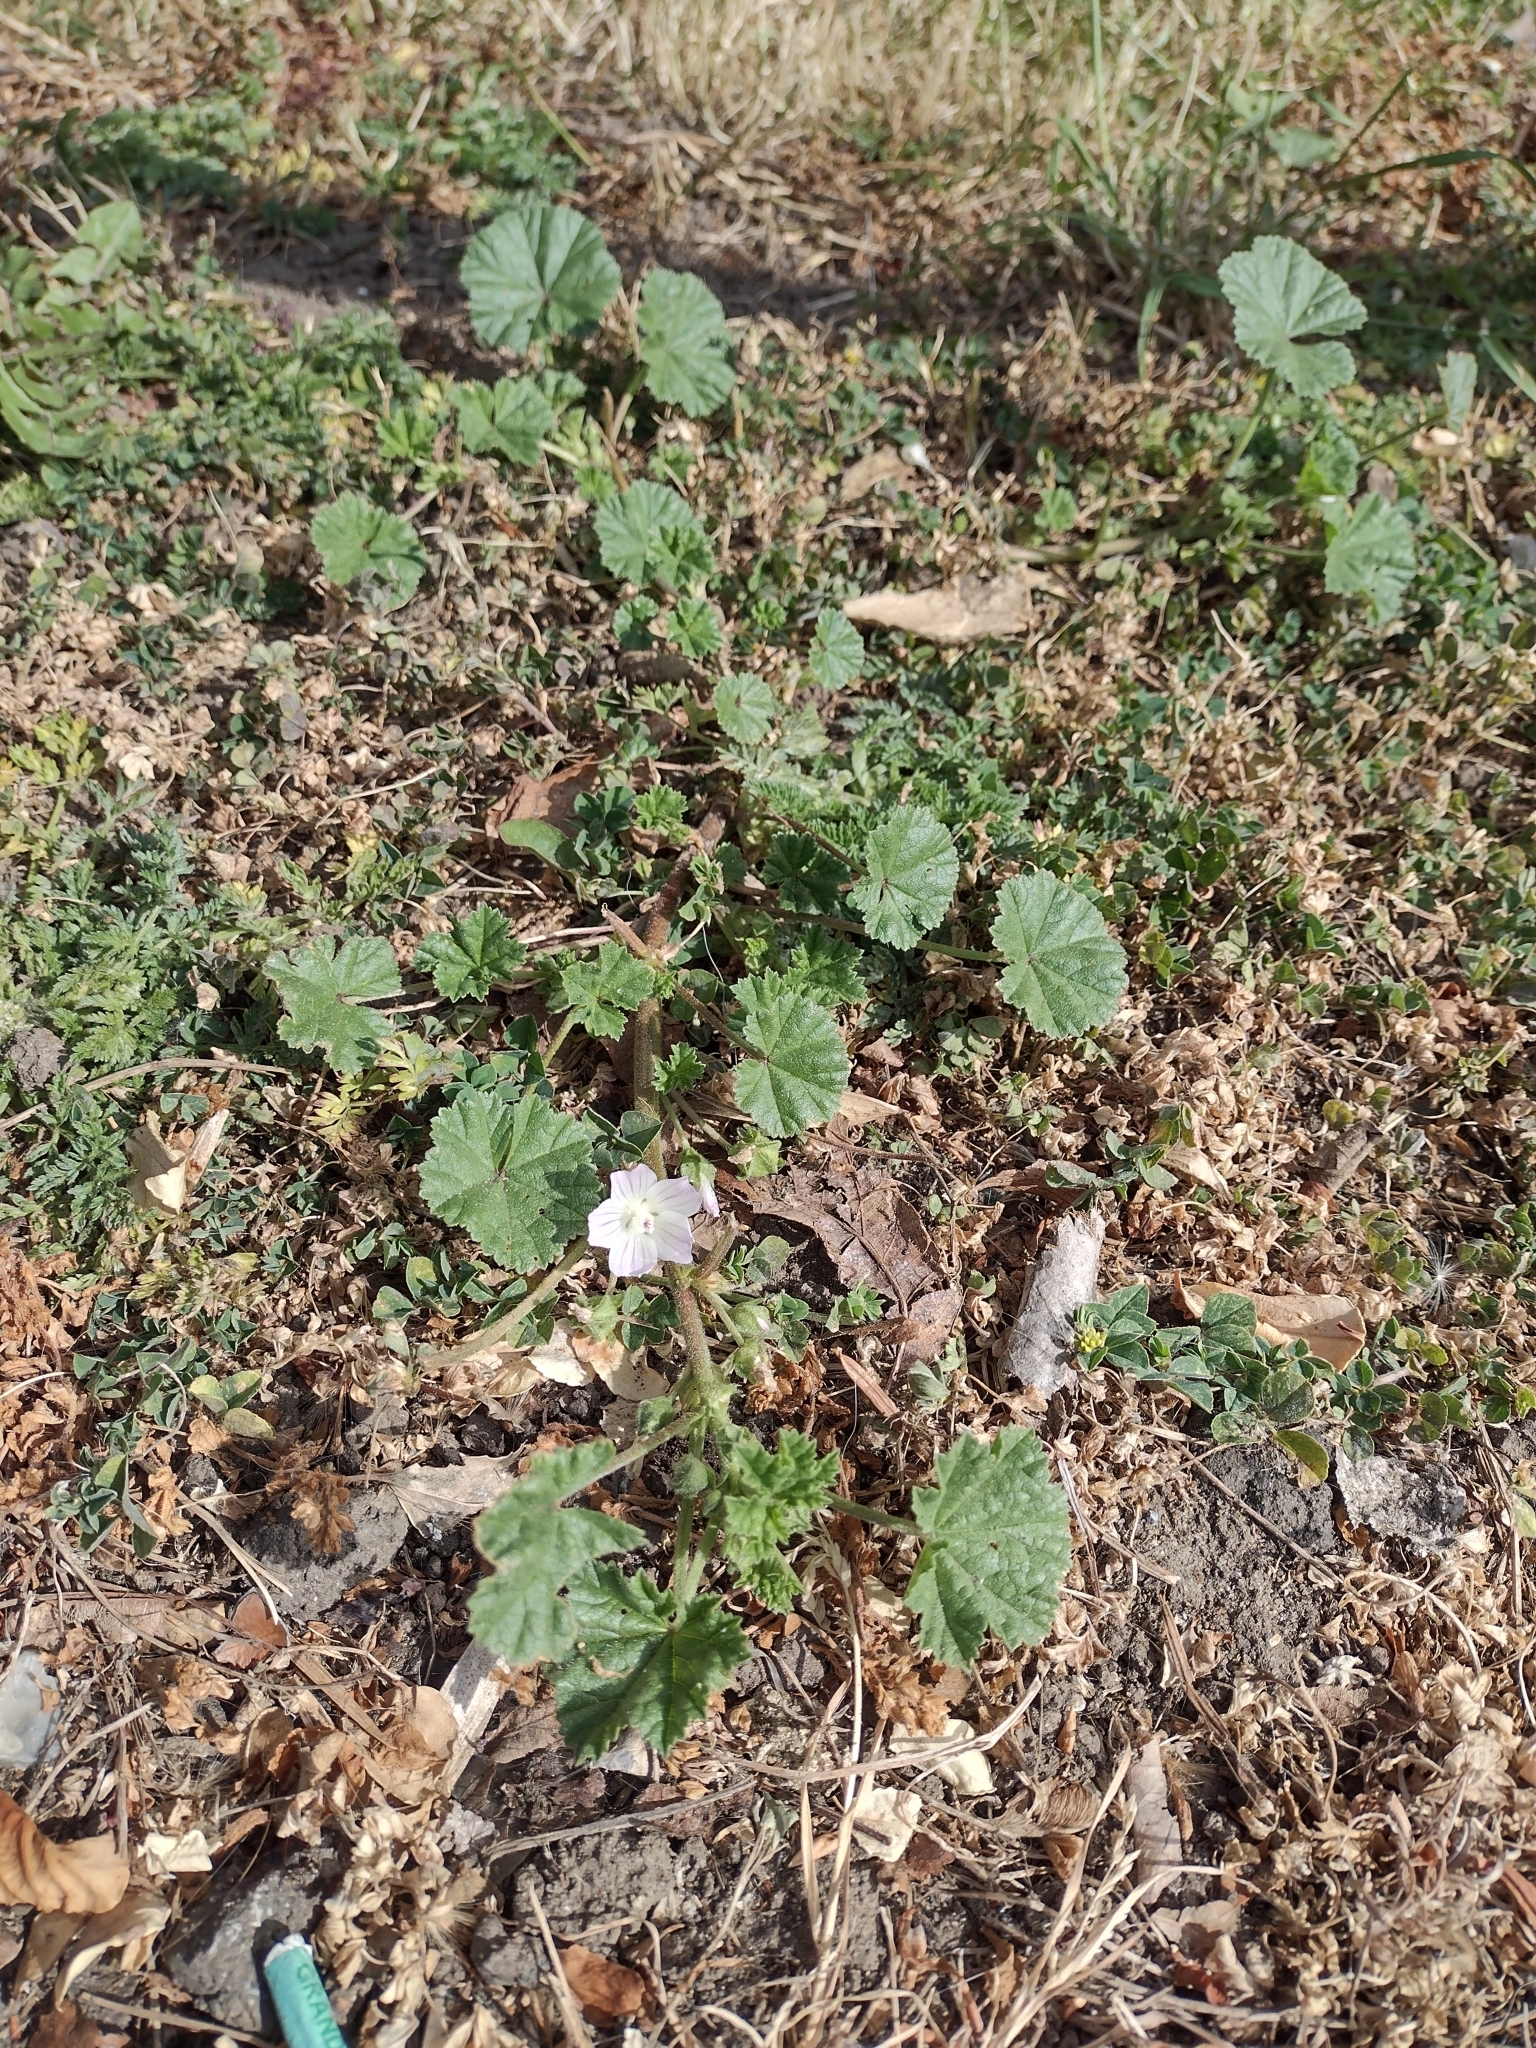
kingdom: Plantae
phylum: Tracheophyta
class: Magnoliopsida
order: Malvales
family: Malvaceae
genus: Malva
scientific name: Malva neglecta
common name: Common mallow
